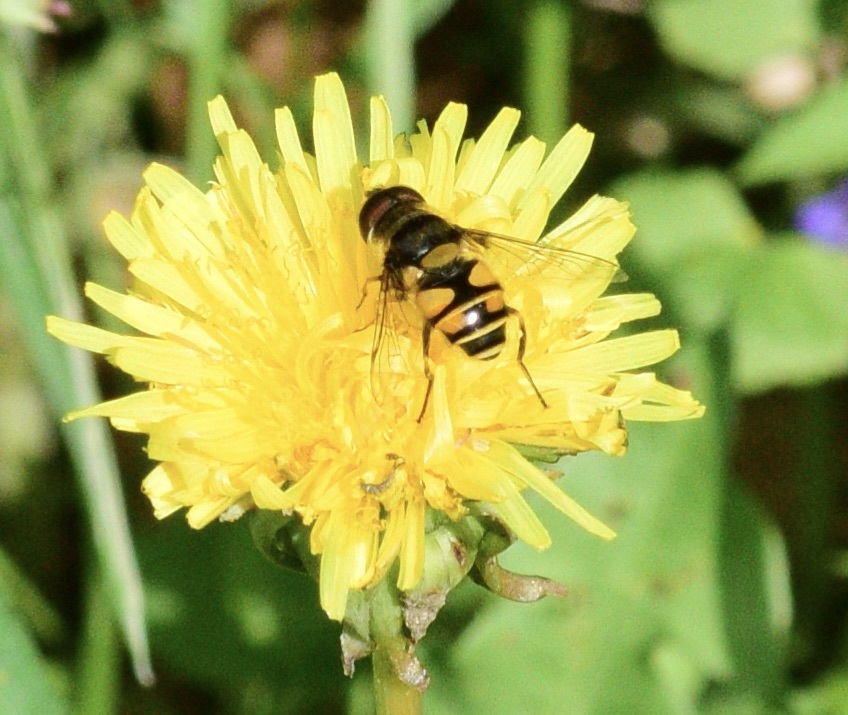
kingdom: Animalia
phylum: Arthropoda
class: Insecta
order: Diptera
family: Syrphidae
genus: Eristalis
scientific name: Eristalis transversa
